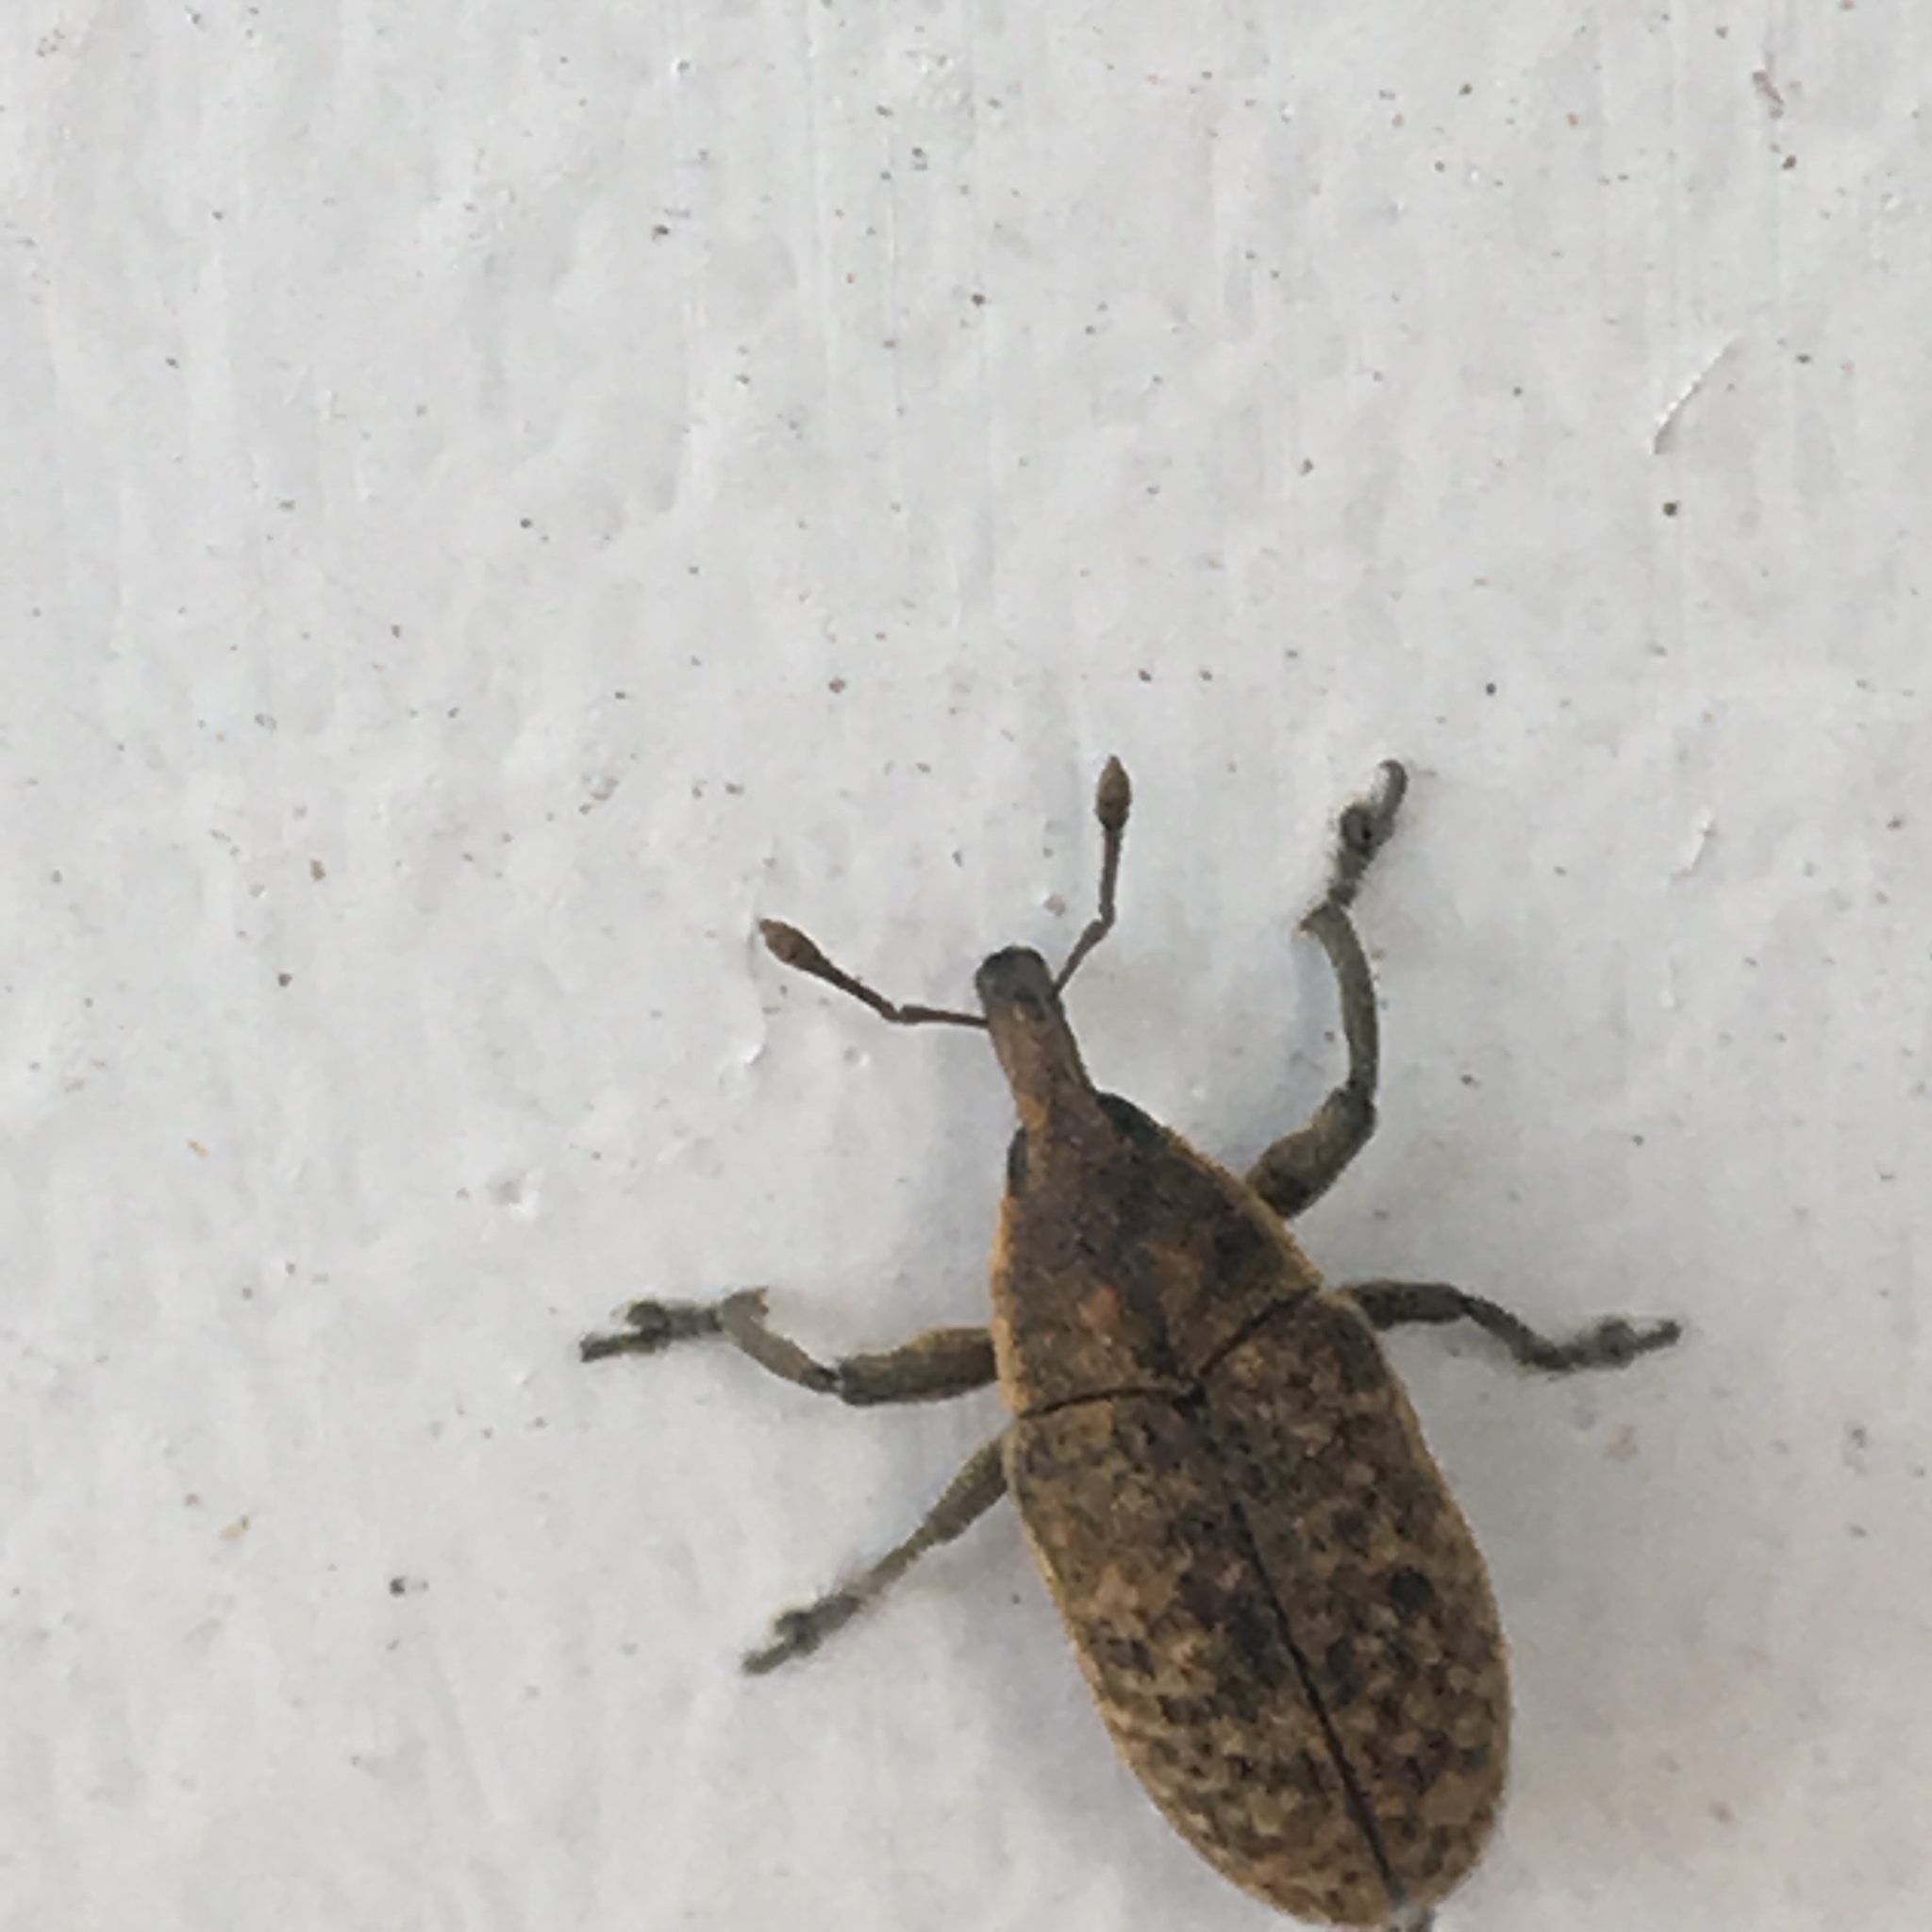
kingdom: Animalia
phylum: Arthropoda
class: Insecta
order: Coleoptera
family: Curculionidae
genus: Larinus
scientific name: Larinus carlinae
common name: Weevil
